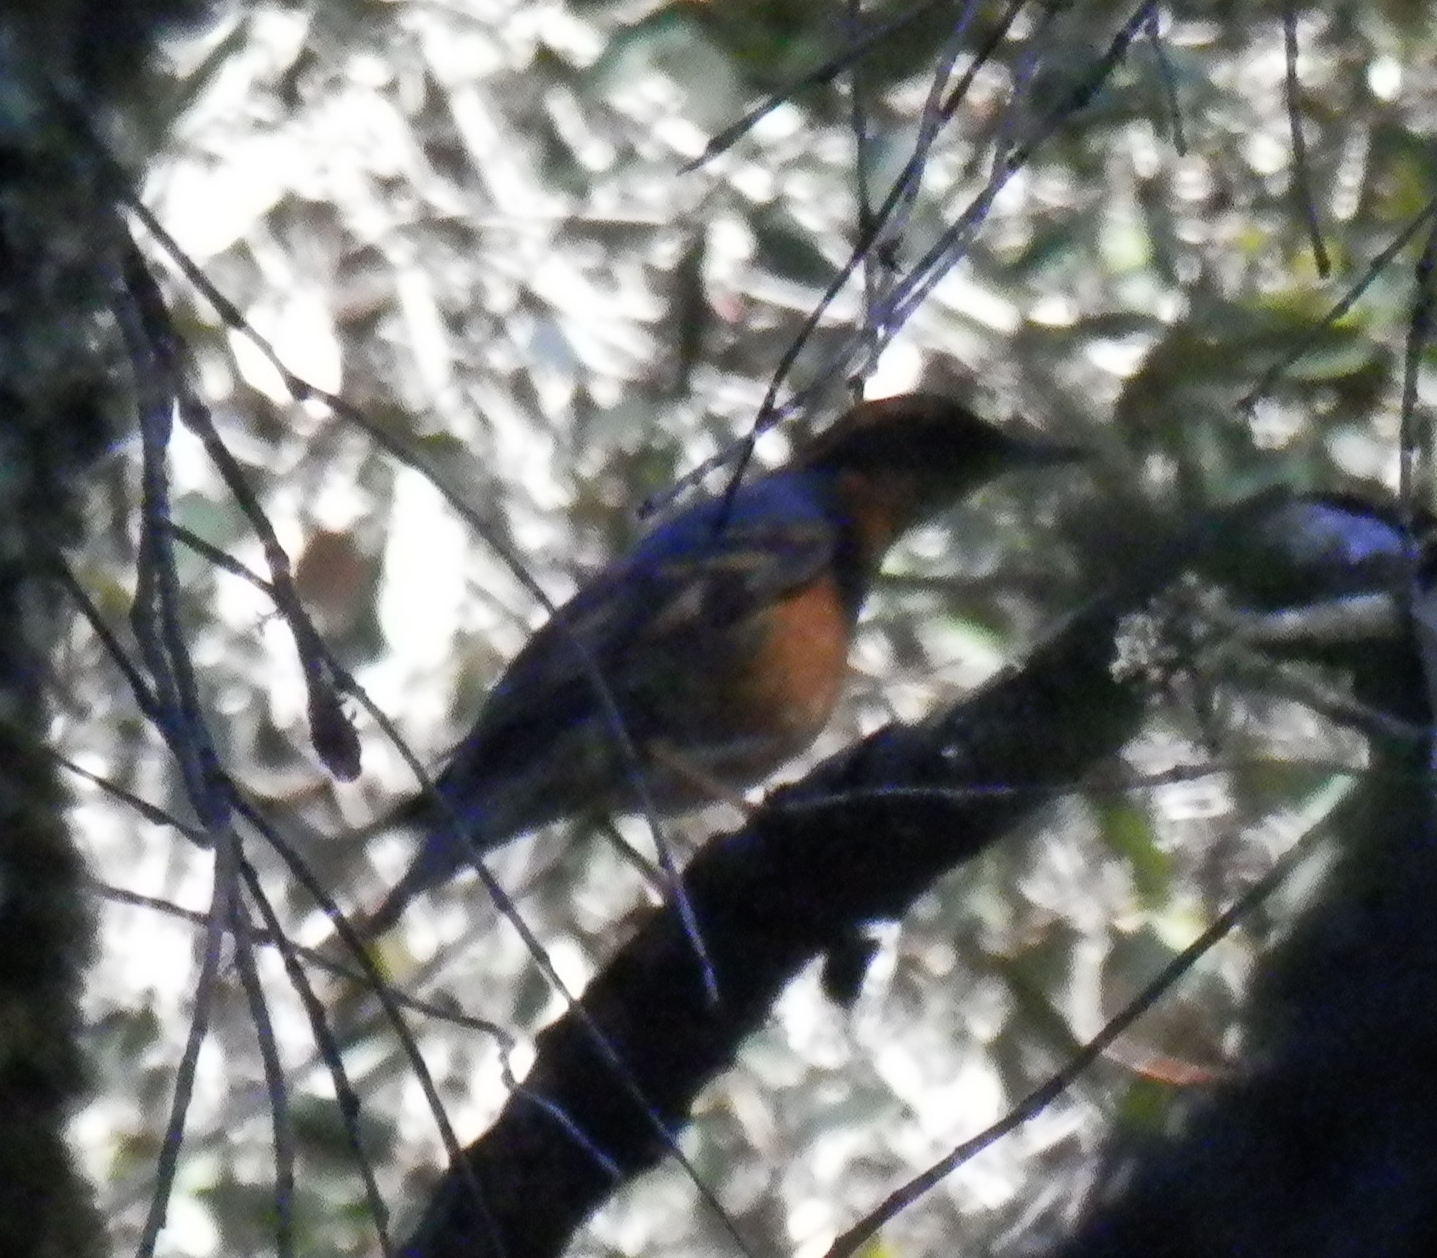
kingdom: Animalia
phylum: Chordata
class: Aves
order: Passeriformes
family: Turdidae
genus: Ixoreus
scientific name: Ixoreus naevius
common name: Varied thrush
